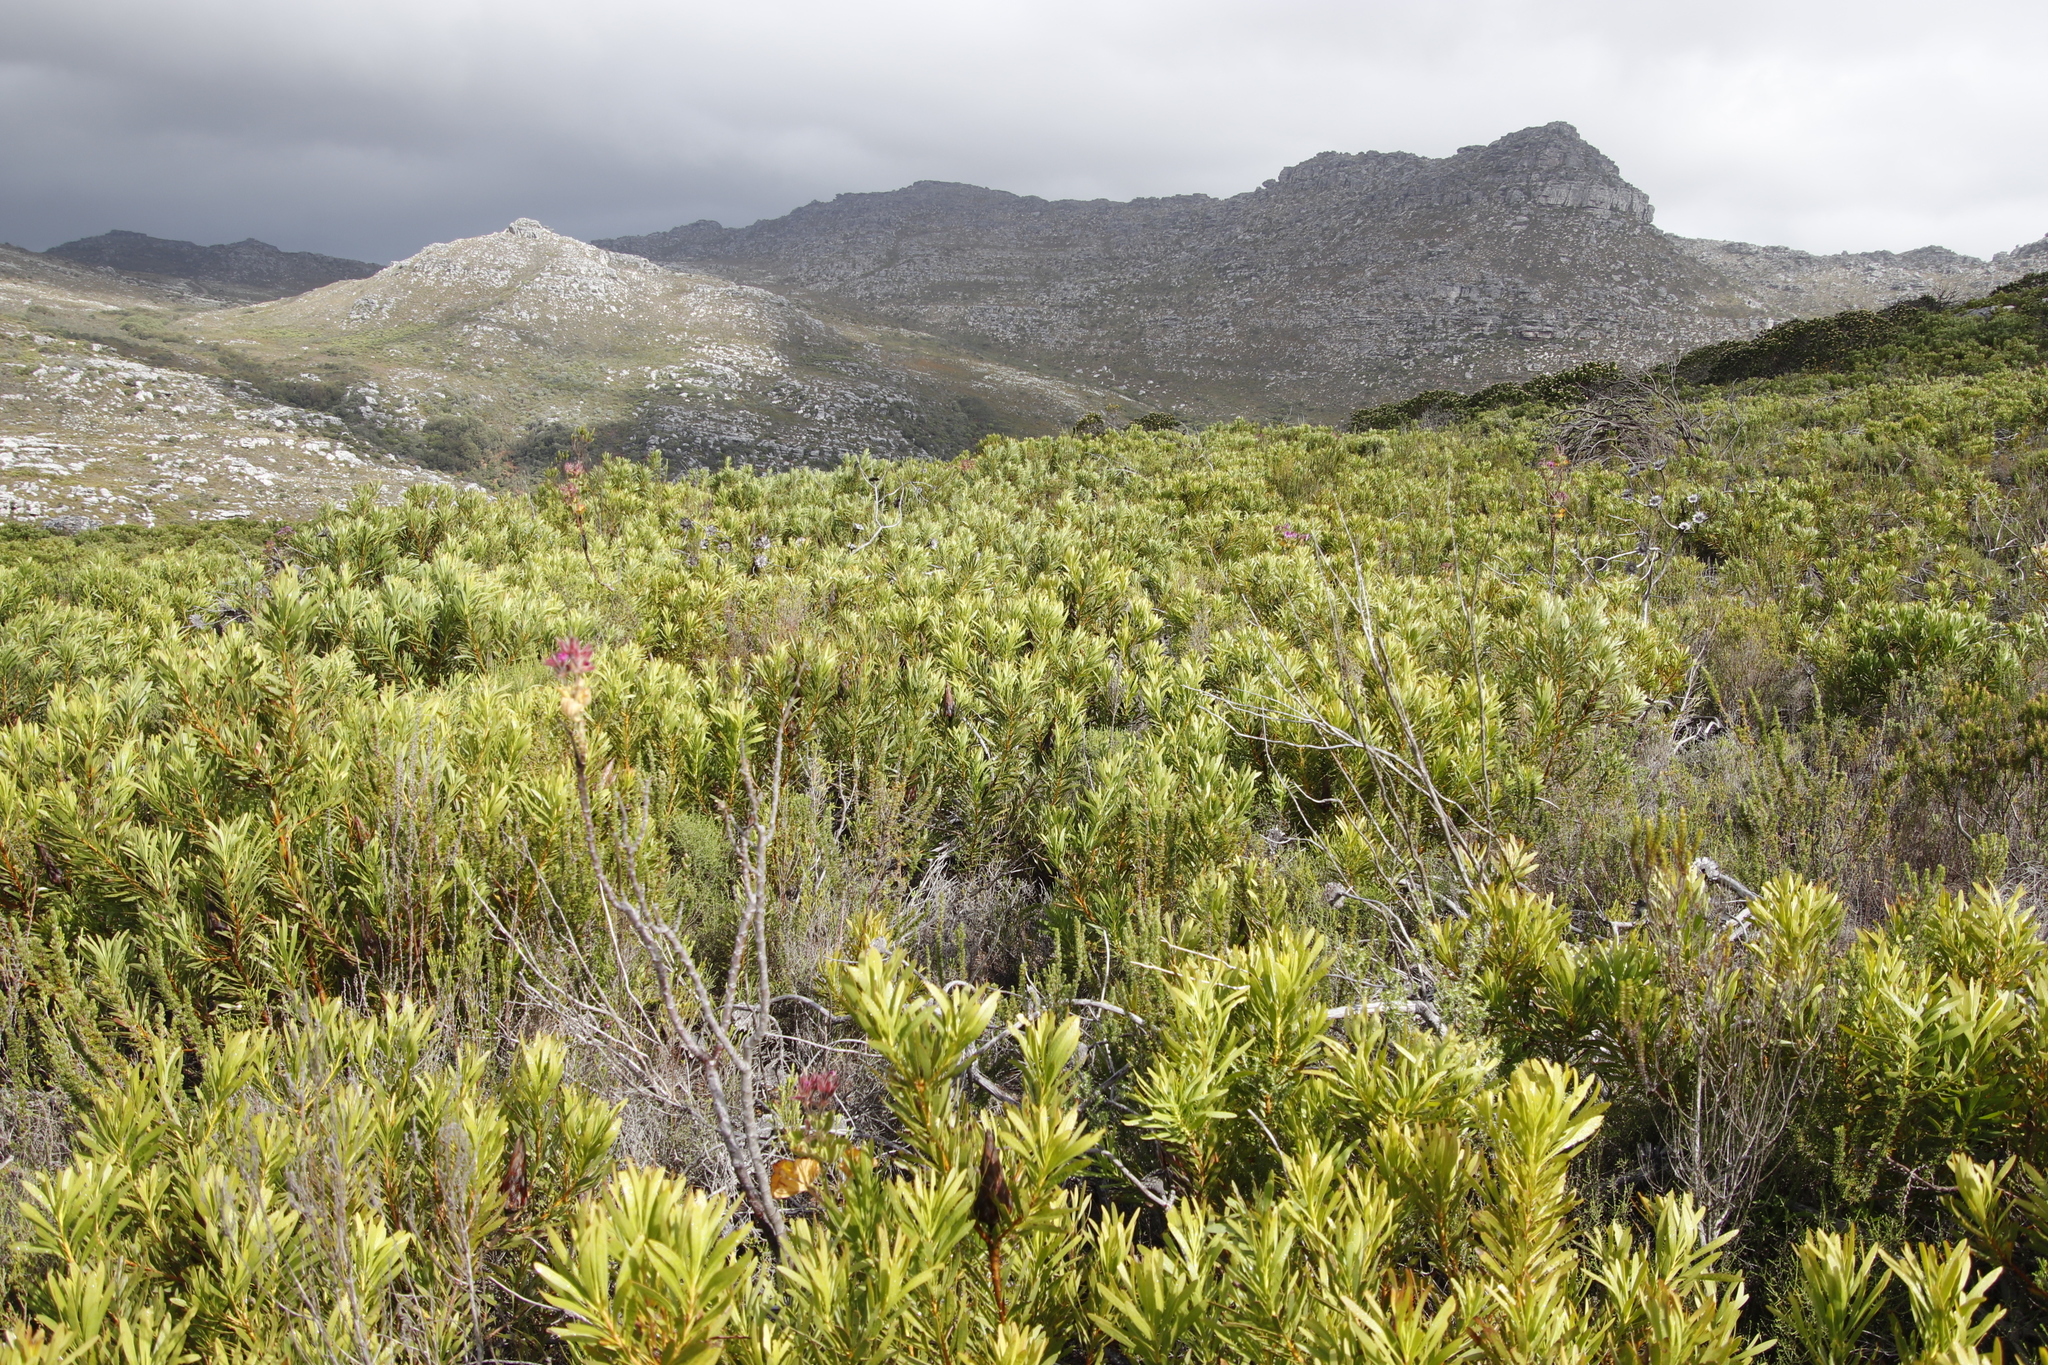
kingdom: Plantae
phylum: Tracheophyta
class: Magnoliopsida
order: Proteales
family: Proteaceae
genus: Protea
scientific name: Protea repens
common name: Sugarbush
